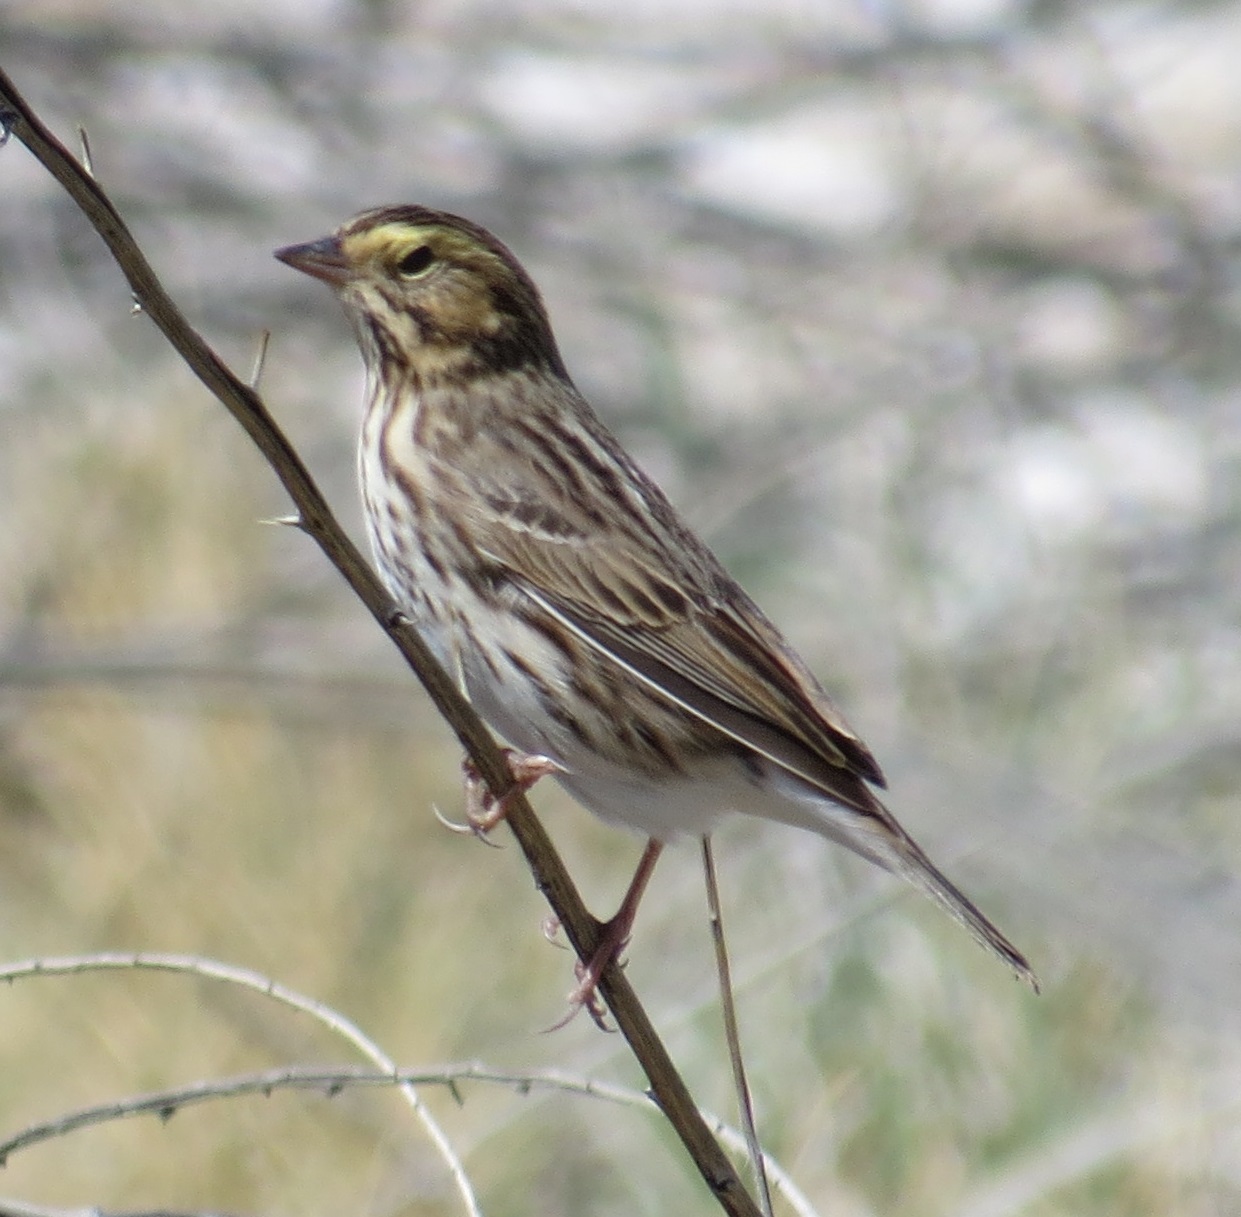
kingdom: Animalia
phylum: Chordata
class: Aves
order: Passeriformes
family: Passerellidae
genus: Passerculus
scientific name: Passerculus sandwichensis
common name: Savannah sparrow
